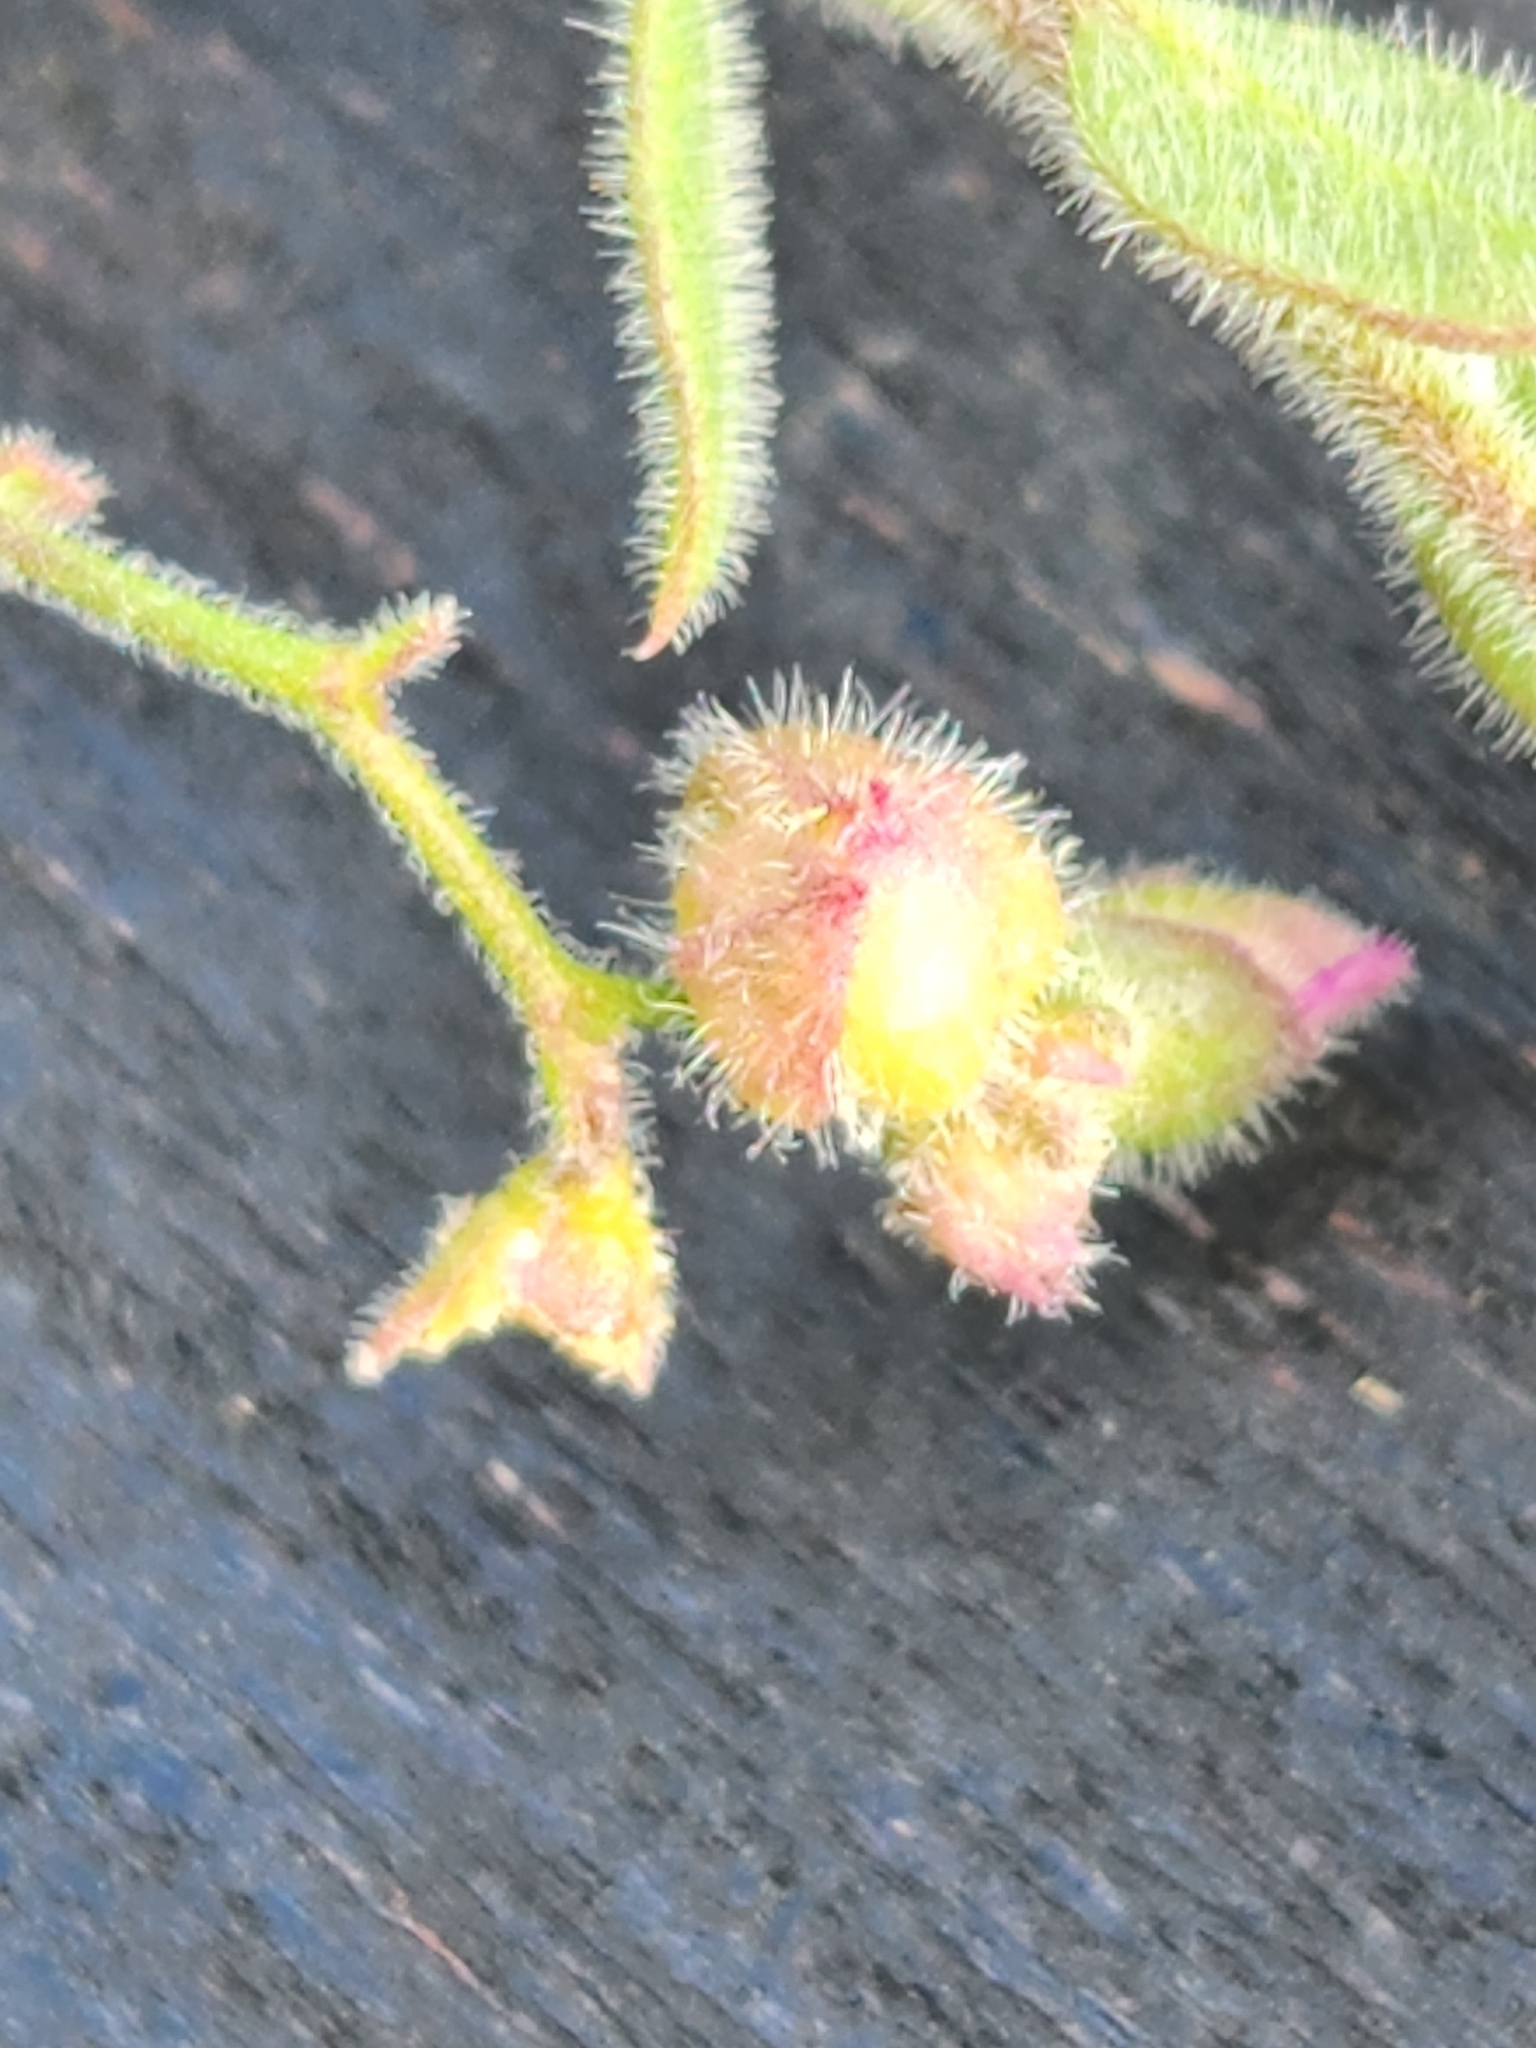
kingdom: Plantae
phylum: Tracheophyta
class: Magnoliopsida
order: Fabales
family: Polygalaceae
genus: Rhinotropis
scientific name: Rhinotropis lindheimeri
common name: Shrubby milkwort
